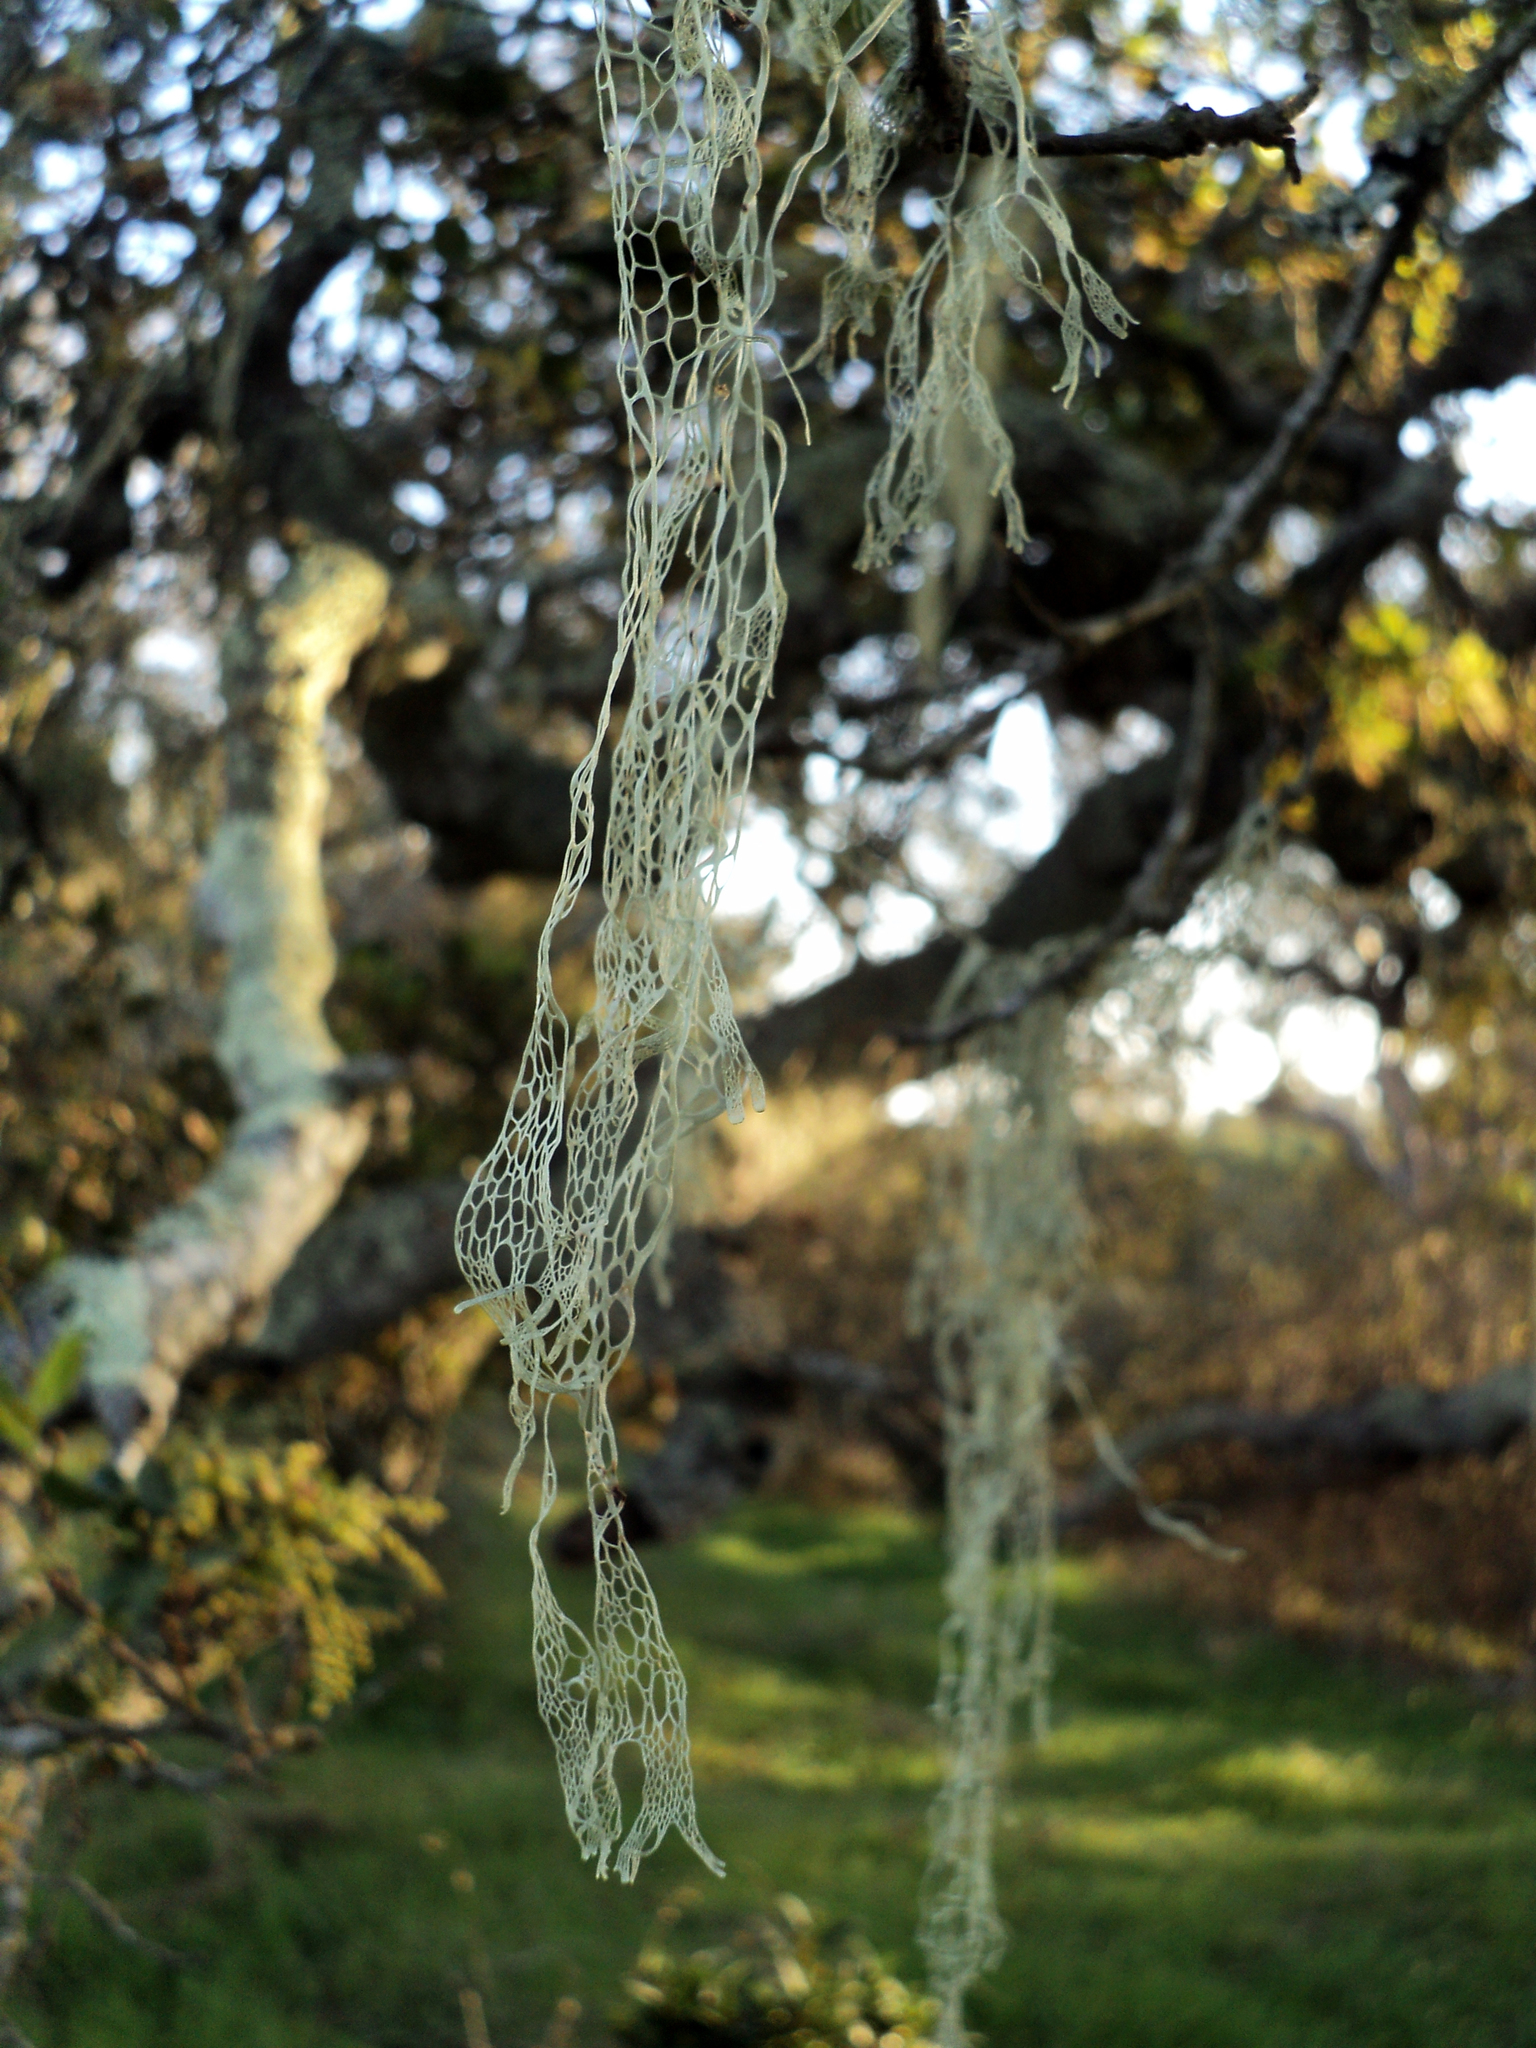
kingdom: Fungi
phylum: Ascomycota
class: Lecanoromycetes
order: Lecanorales
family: Ramalinaceae
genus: Ramalina
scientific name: Ramalina menziesii
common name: Lace lichen
